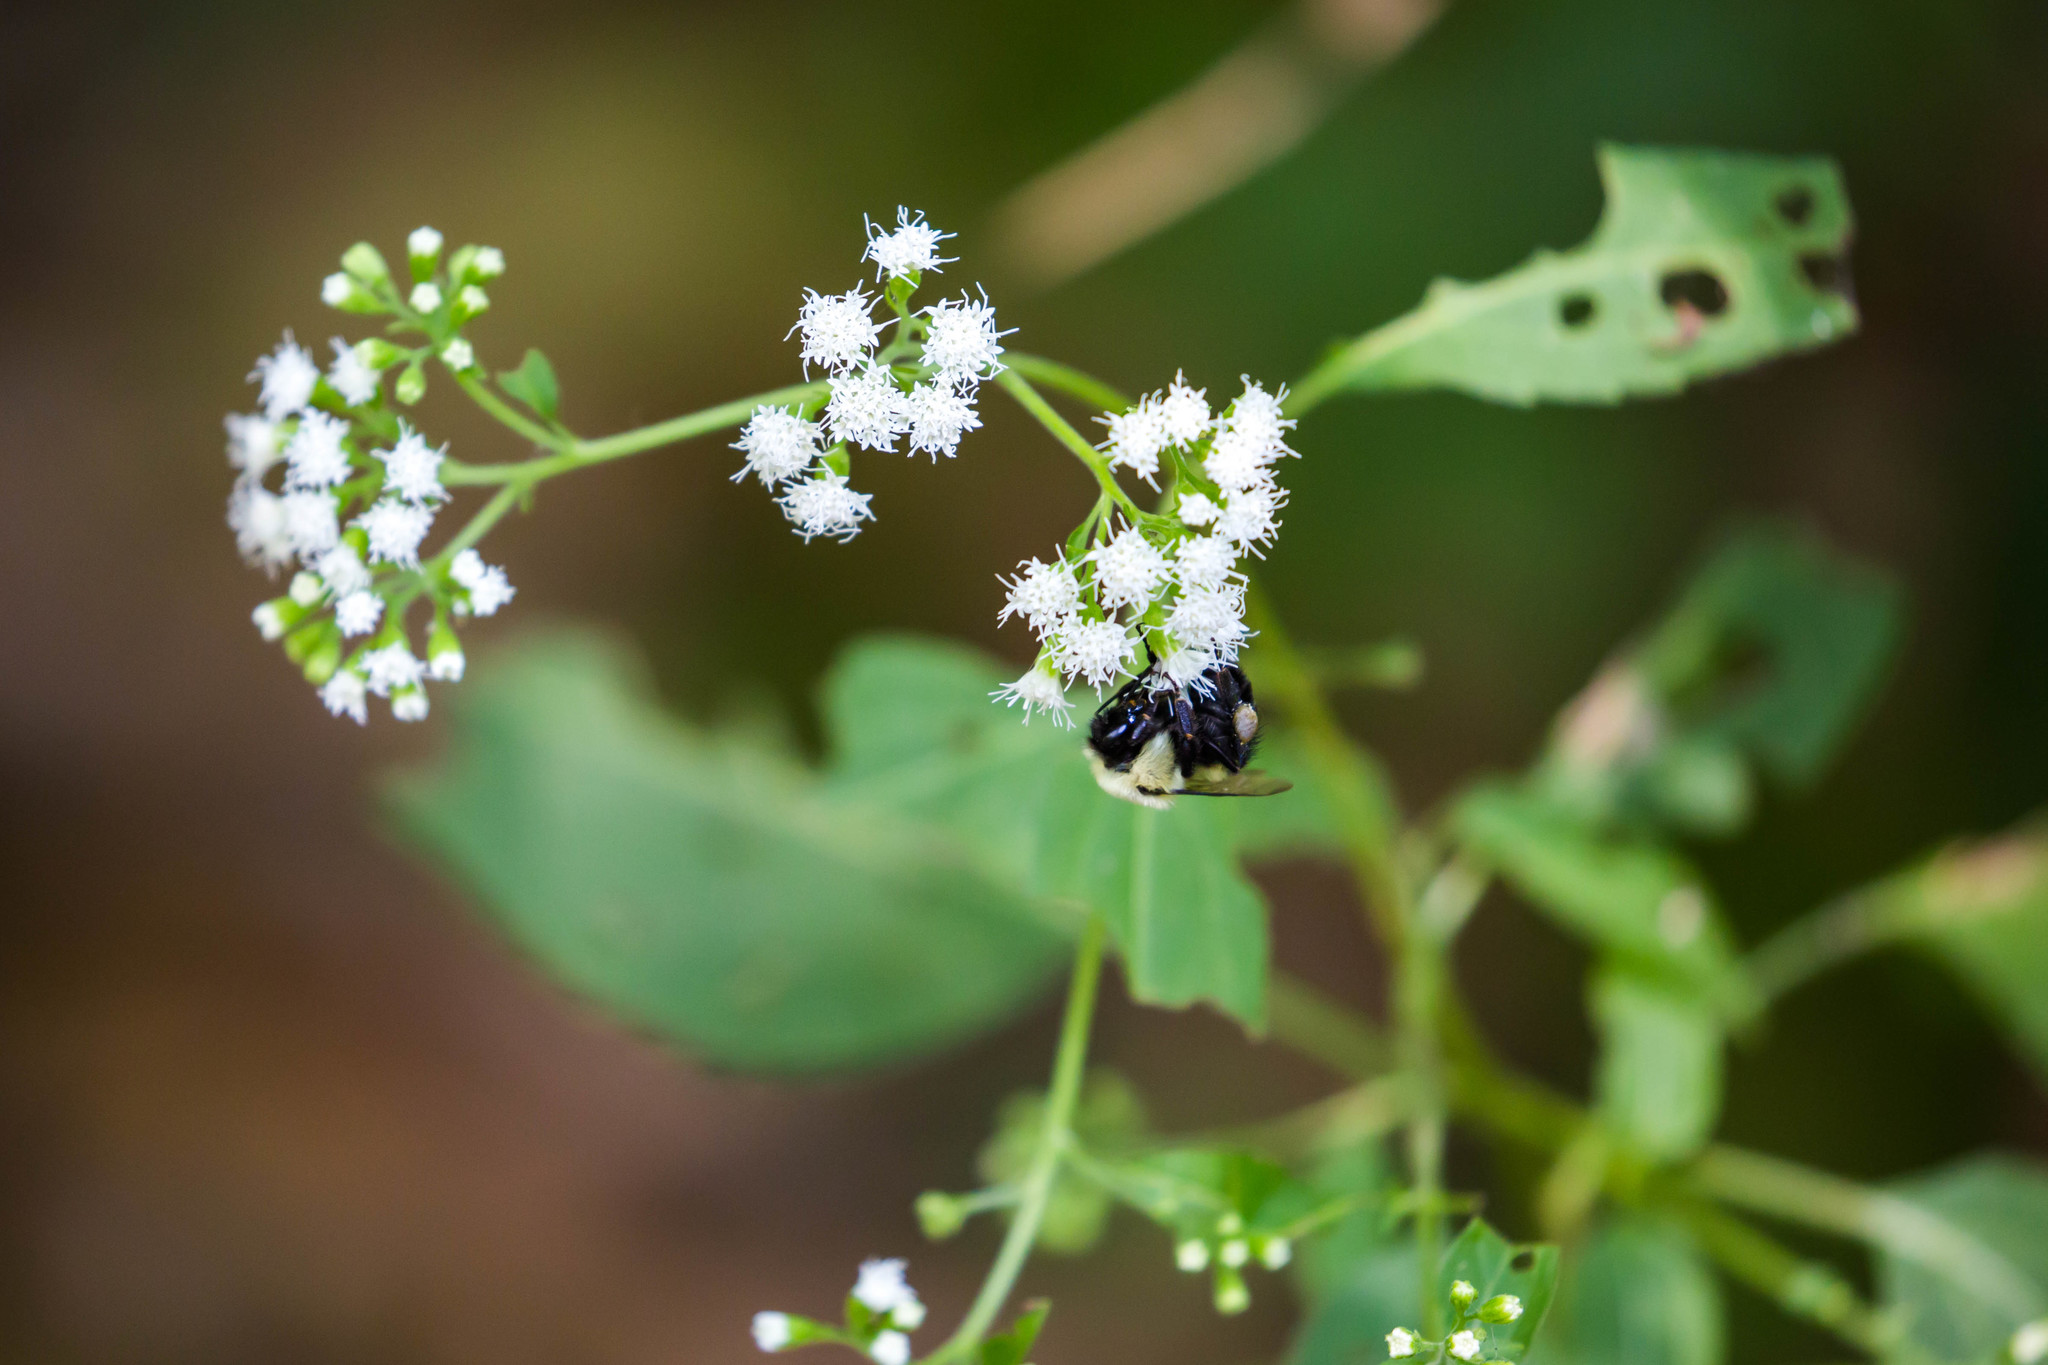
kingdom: Animalia
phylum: Arthropoda
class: Insecta
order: Hymenoptera
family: Apidae
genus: Bombus
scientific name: Bombus impatiens
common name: Common eastern bumble bee
